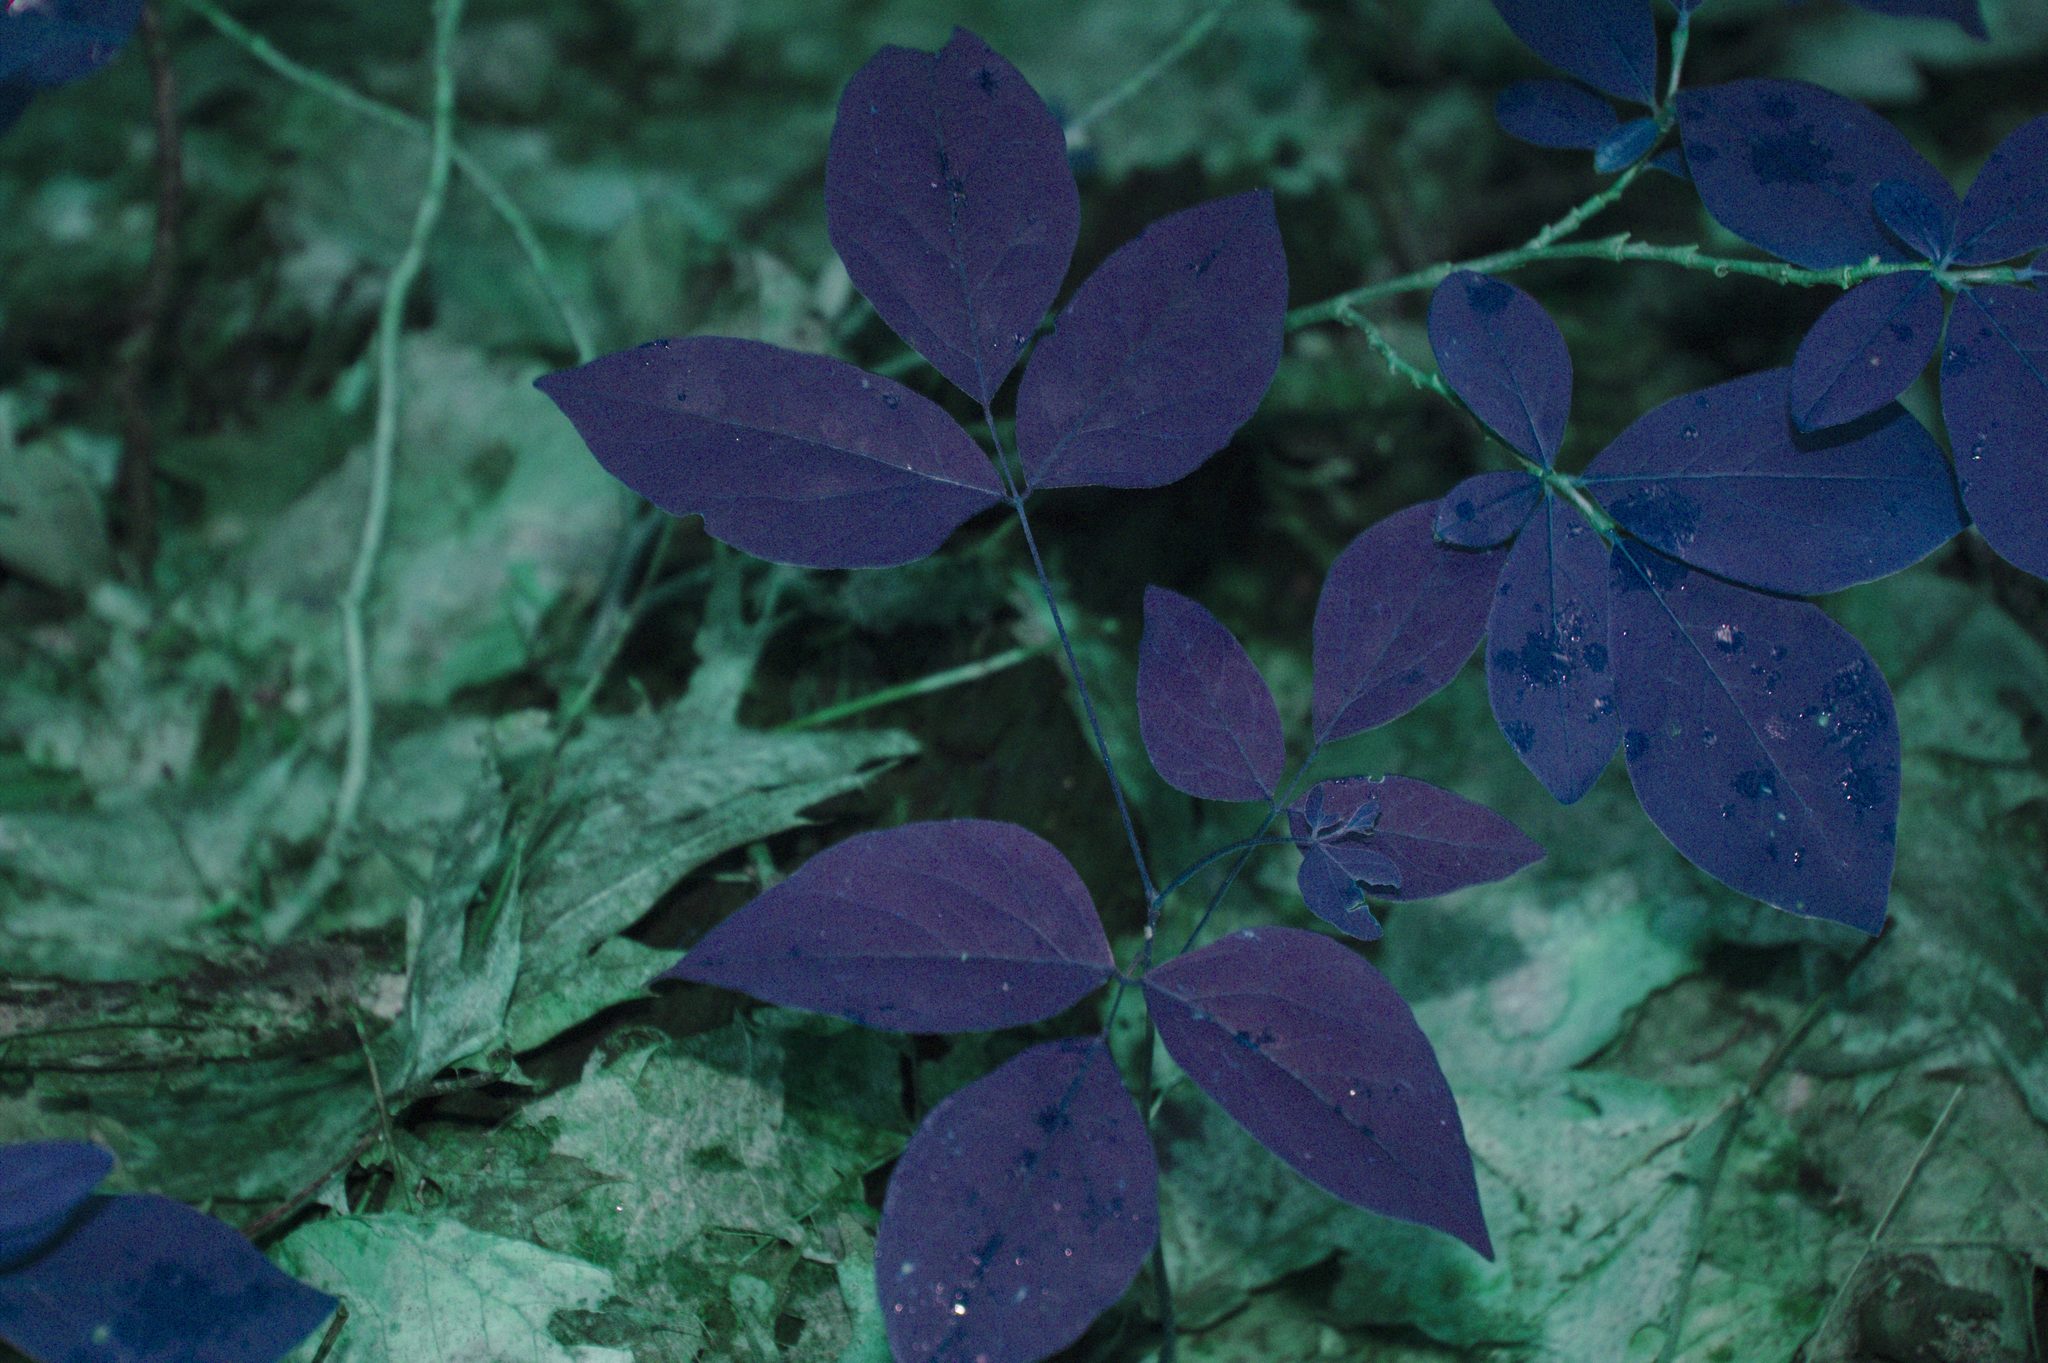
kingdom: Plantae
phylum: Tracheophyta
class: Magnoliopsida
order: Fabales
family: Fabaceae
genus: Hylodesmum
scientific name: Hylodesmum nudiflorum
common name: Bare-stemmed tick-trefoil
